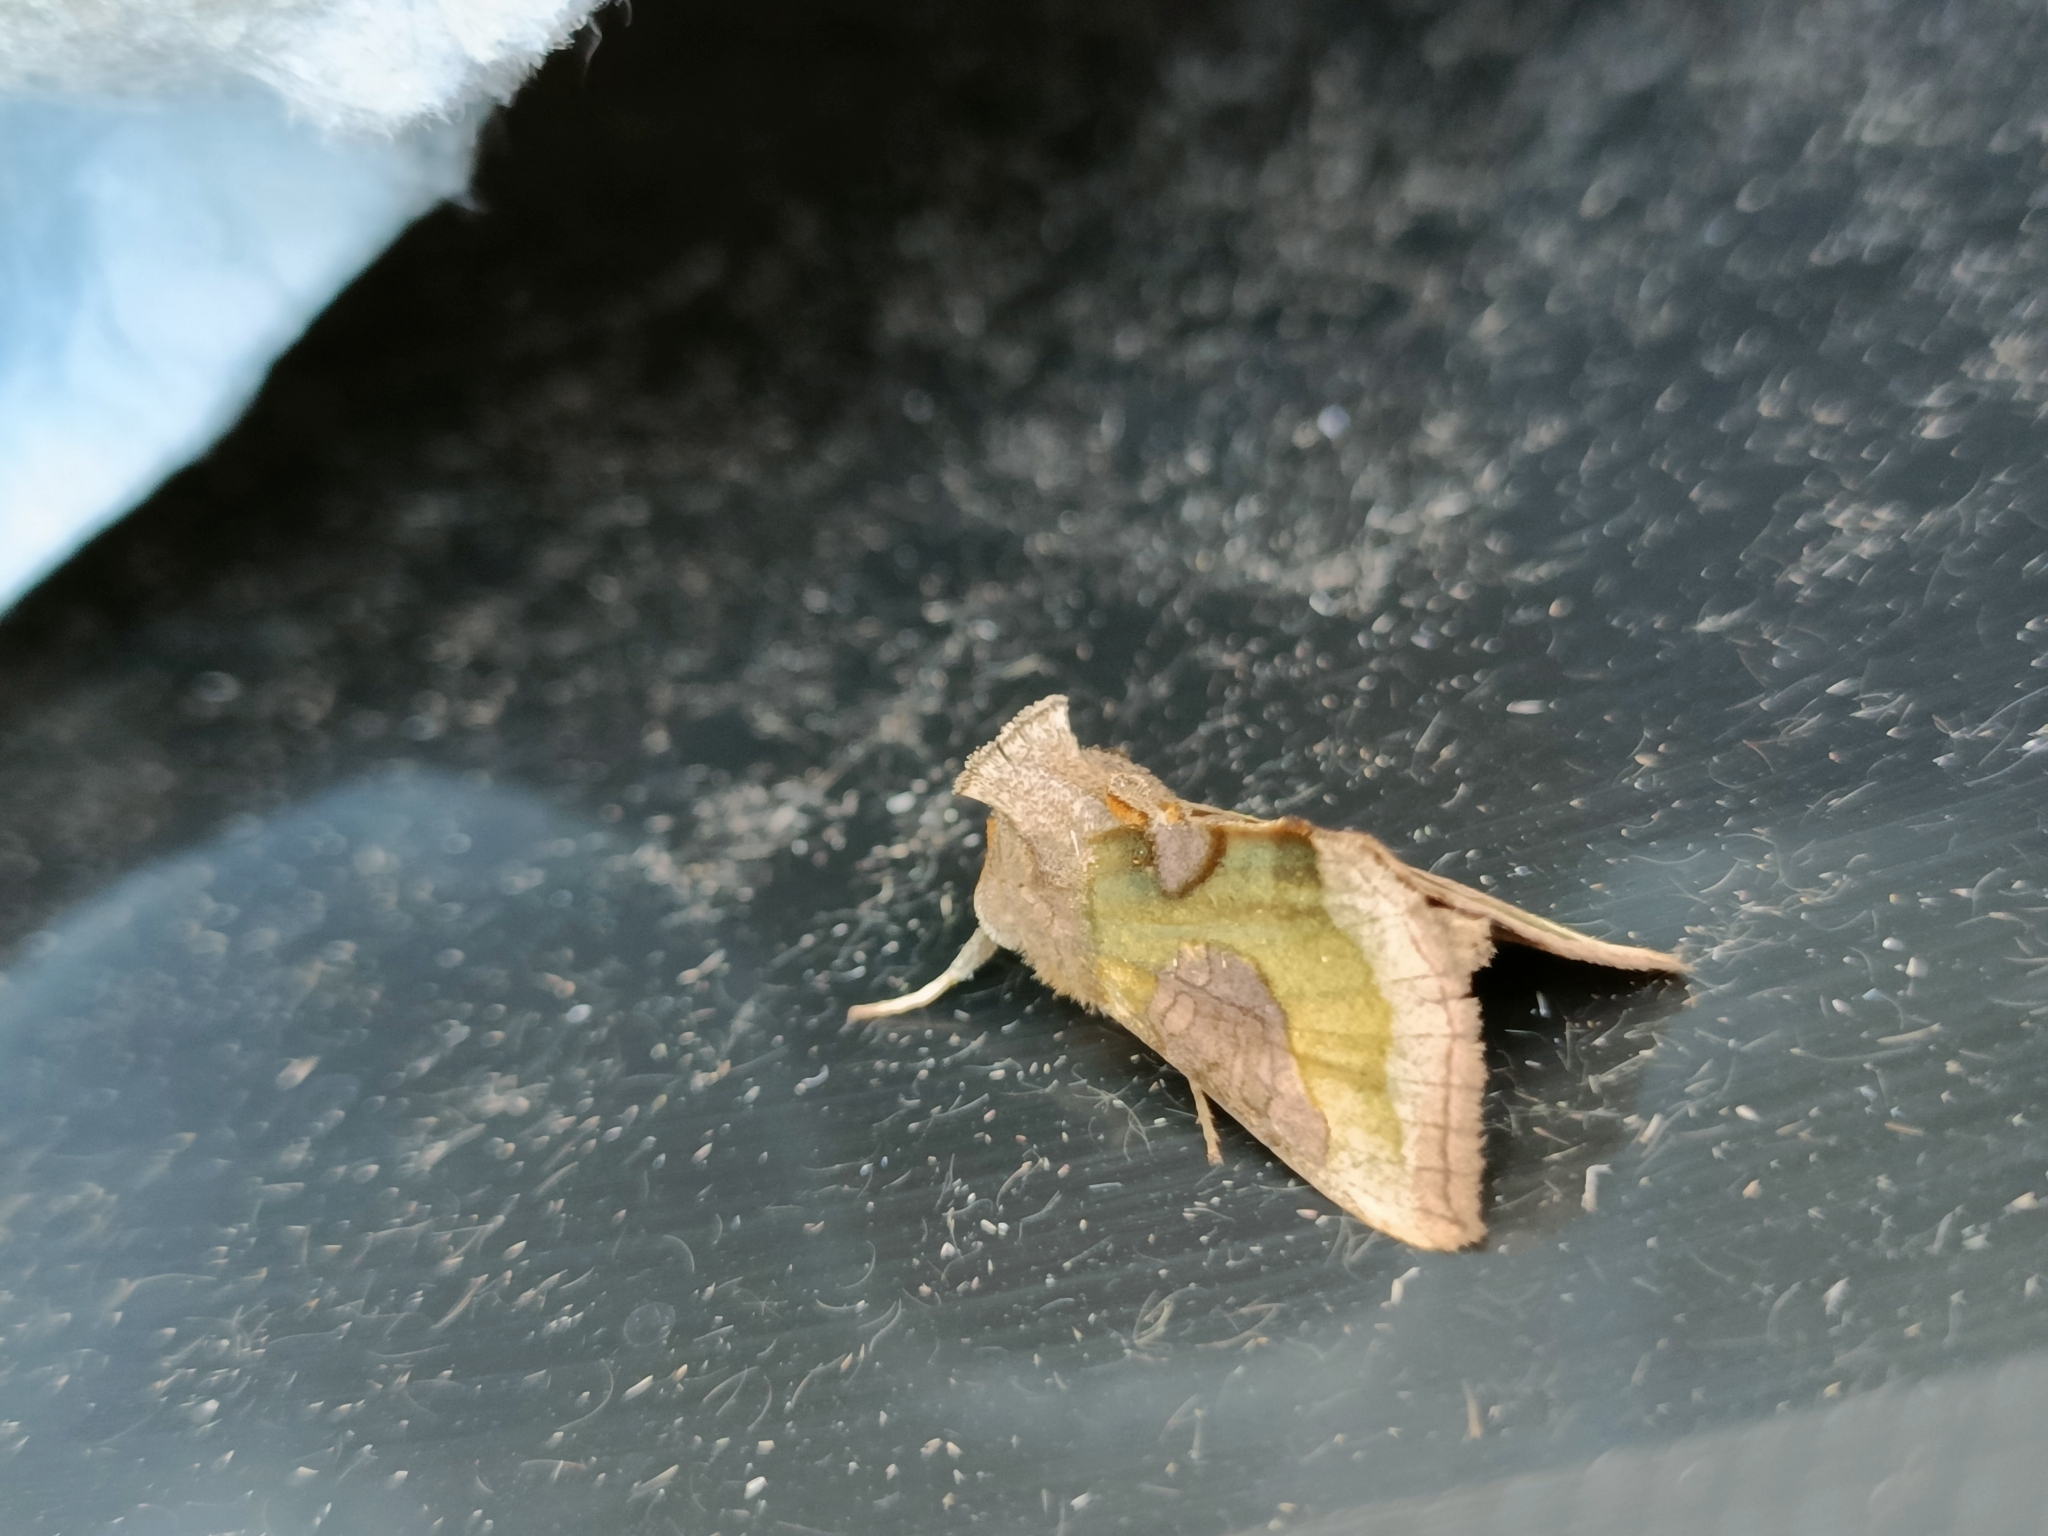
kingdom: Animalia
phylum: Arthropoda
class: Insecta
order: Lepidoptera
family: Noctuidae
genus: Diachrysia
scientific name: Diachrysia chrysitis
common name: Burnished brass
